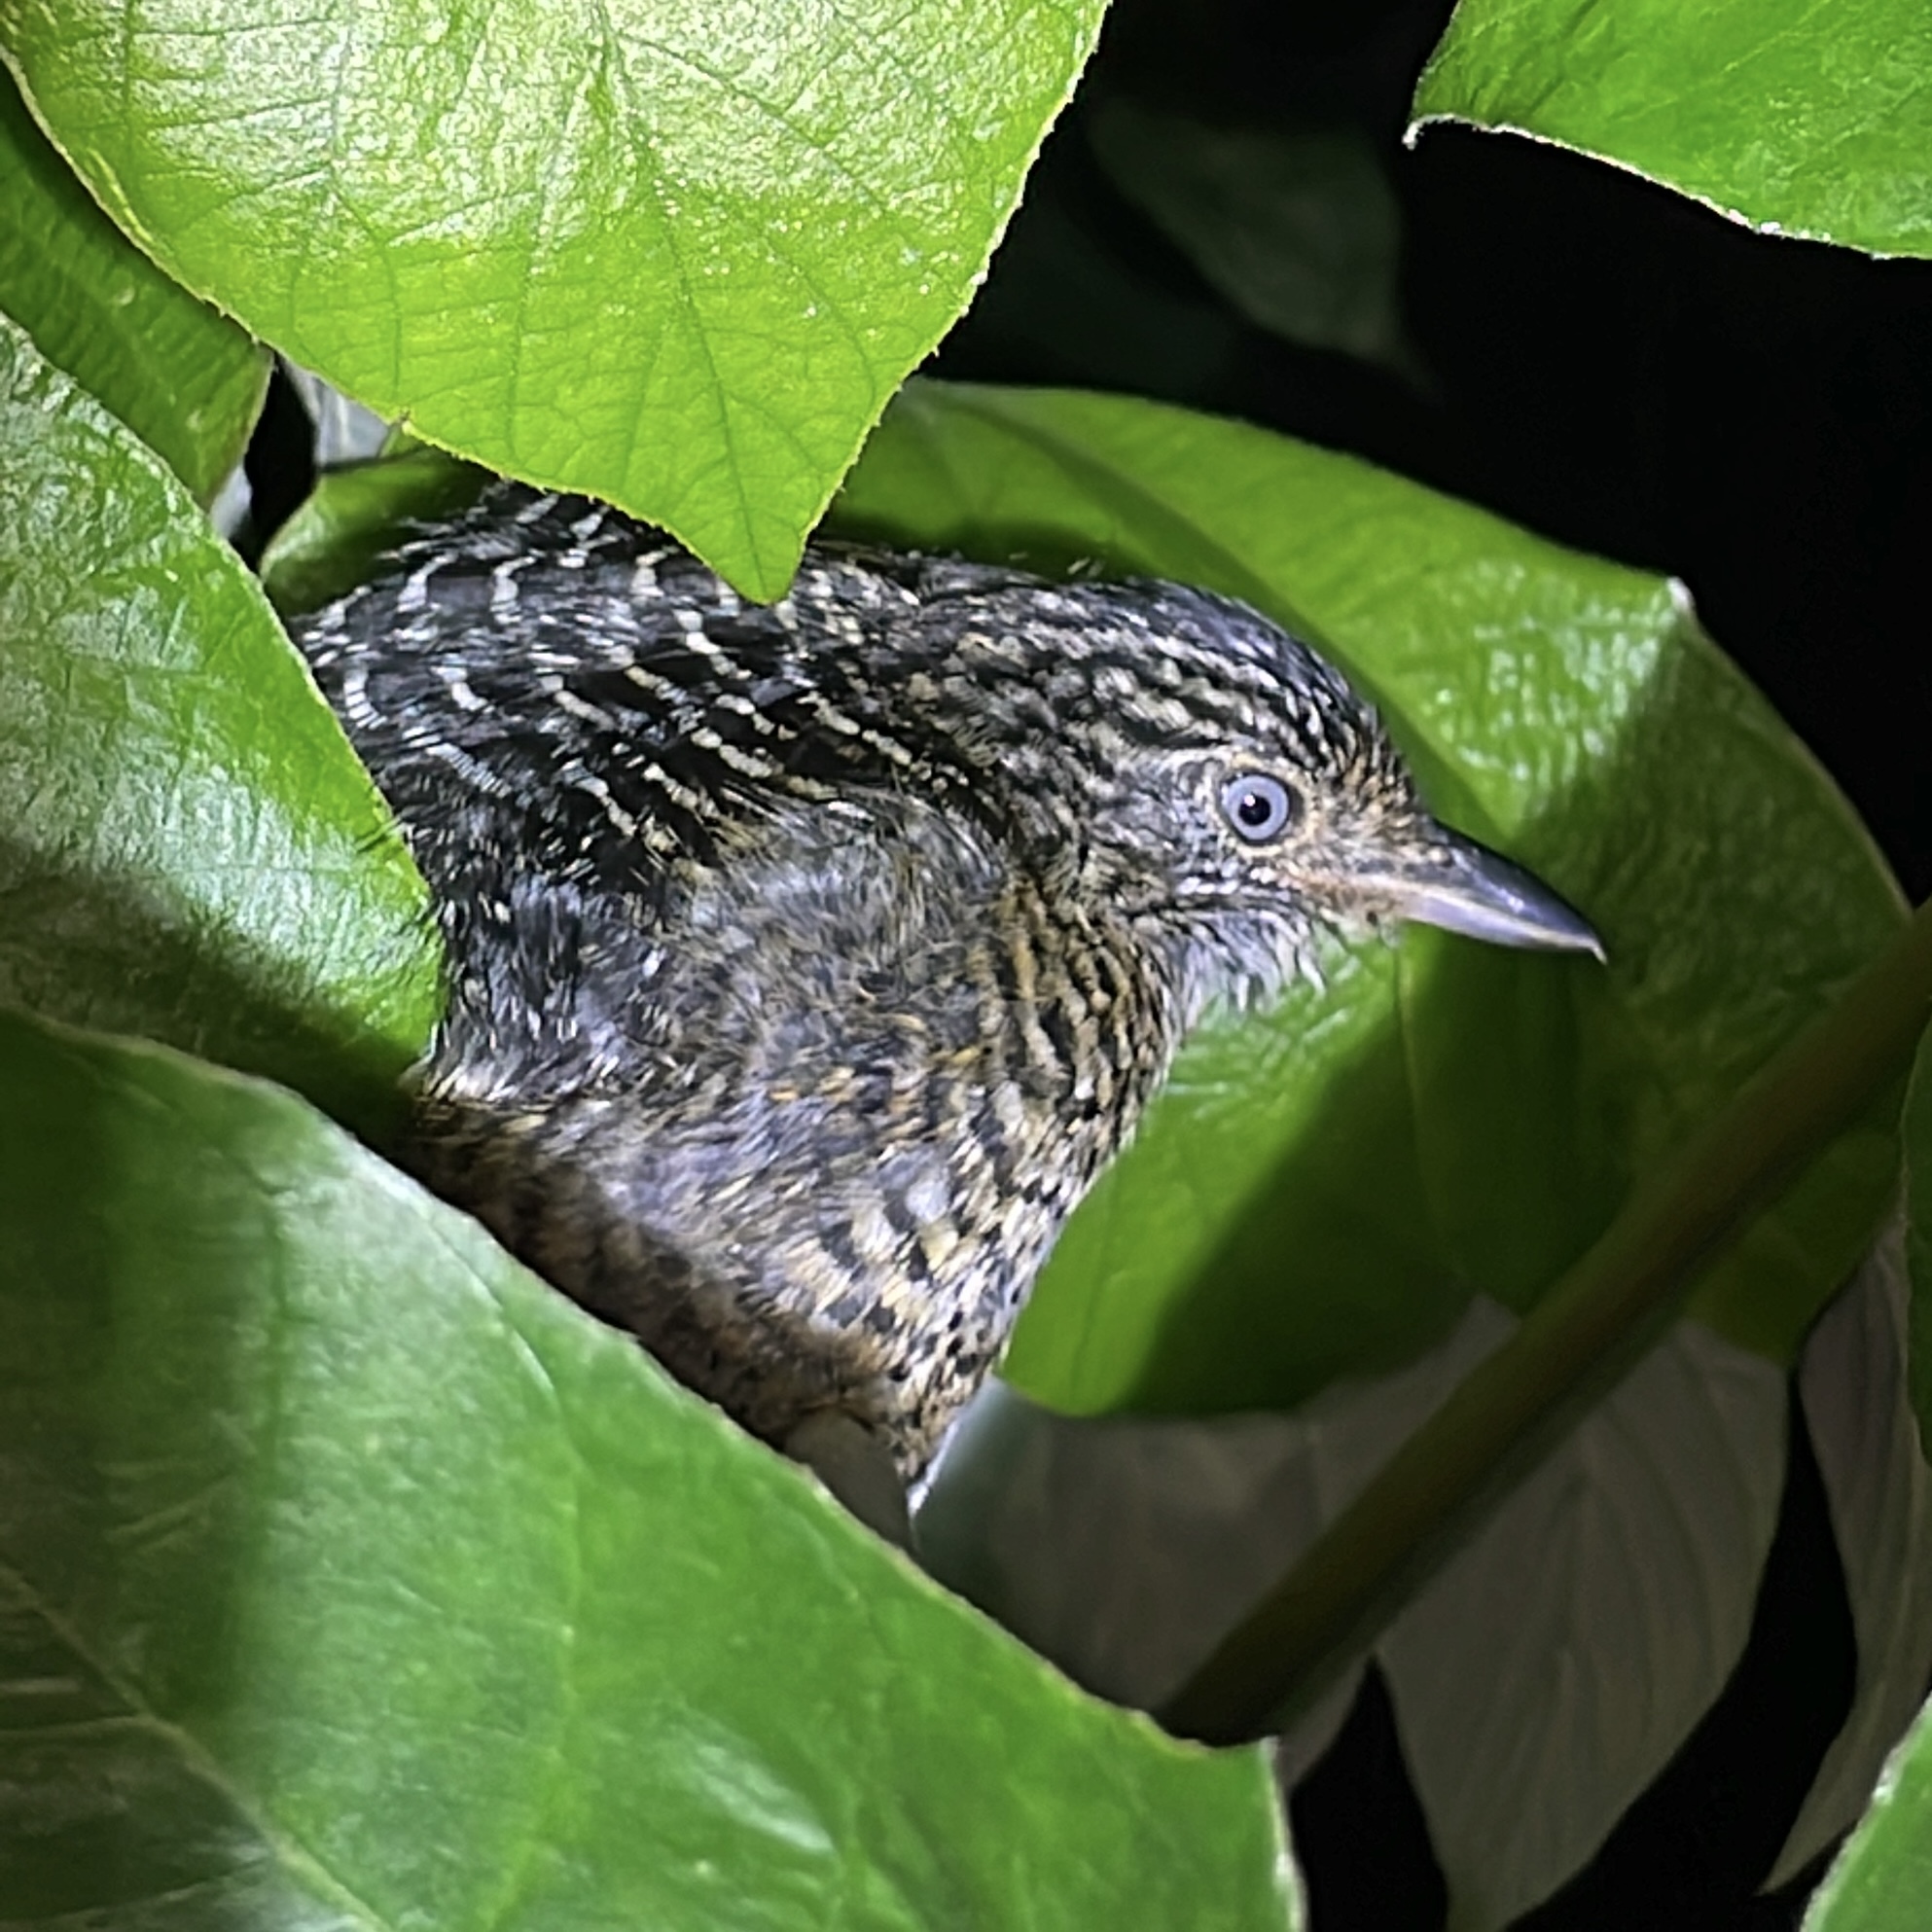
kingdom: Animalia
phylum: Chordata
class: Aves
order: Passeriformes
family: Thamnophilidae
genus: Thamnophilus
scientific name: Thamnophilus doliatus
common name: Barred antshrike
